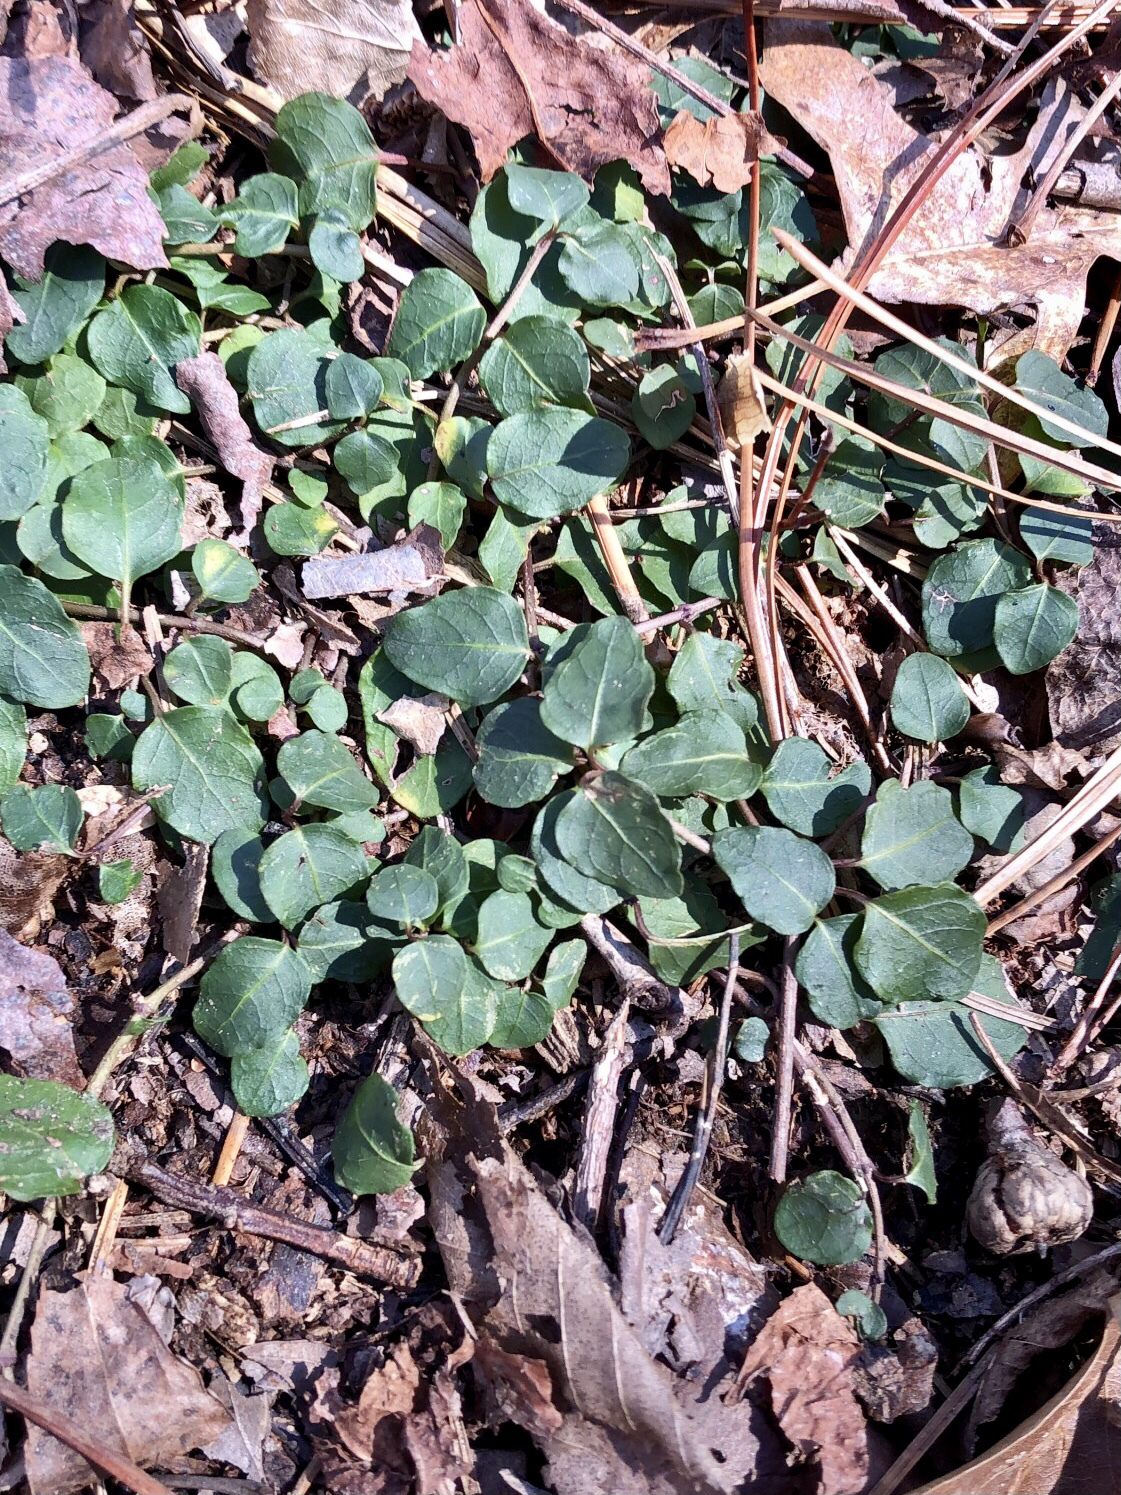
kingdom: Plantae
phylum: Tracheophyta
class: Magnoliopsida
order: Gentianales
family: Rubiaceae
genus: Mitchella
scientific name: Mitchella repens
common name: Partridge-berry
